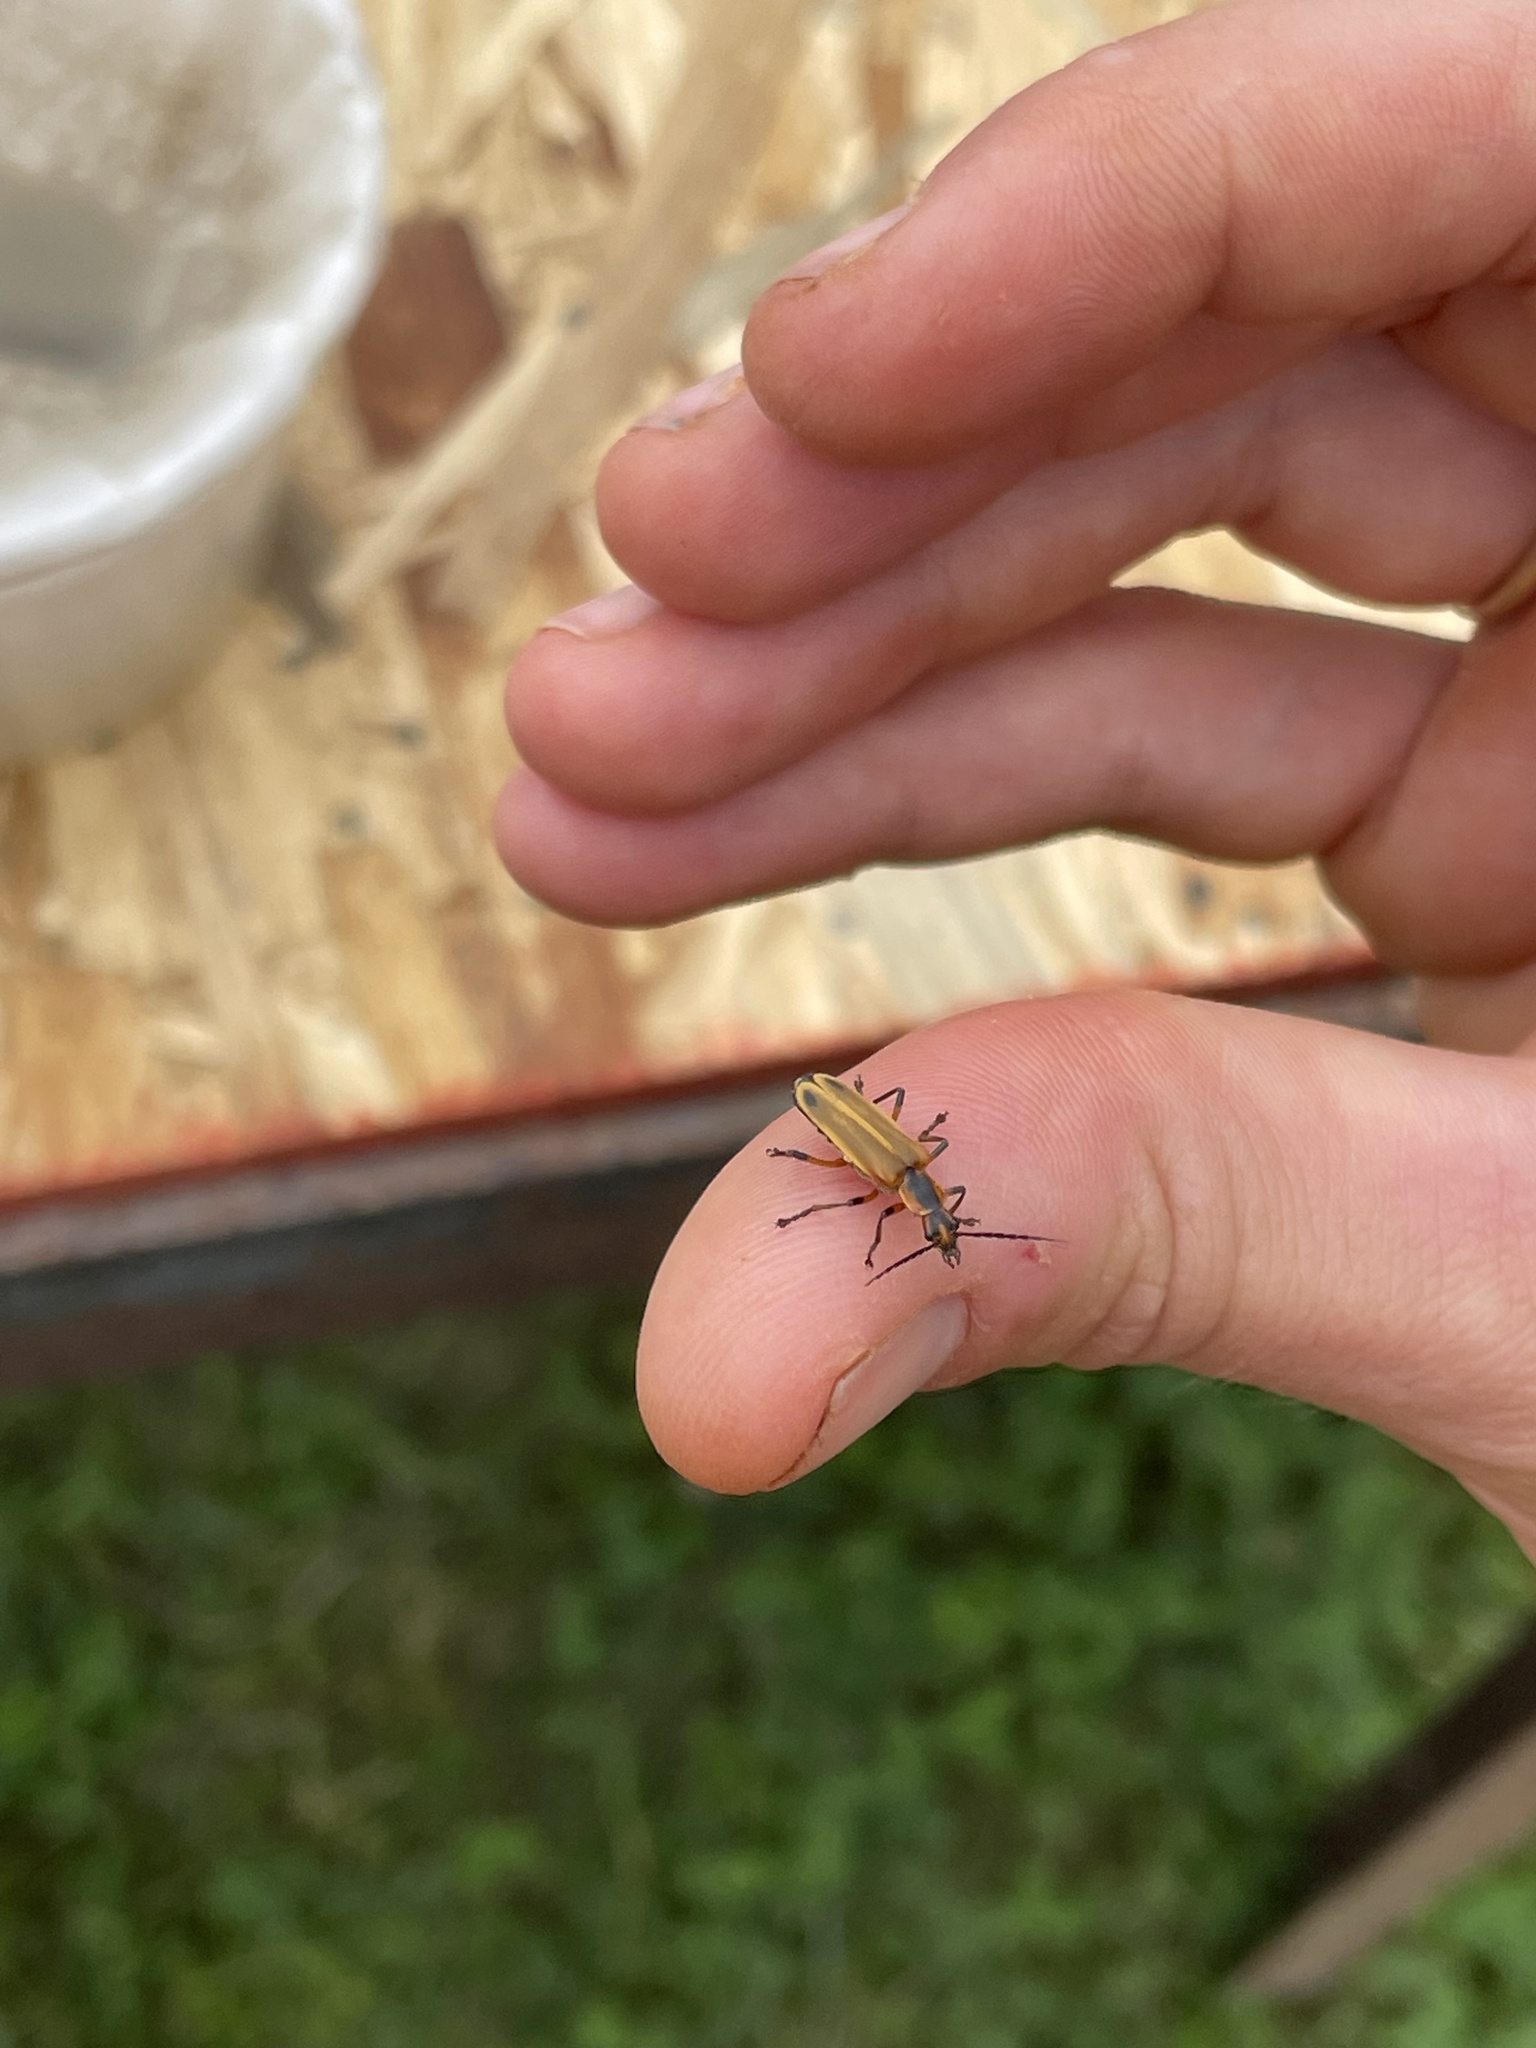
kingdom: Animalia
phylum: Arthropoda
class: Insecta
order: Coleoptera
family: Cantharidae
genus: Chauliognathus
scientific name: Chauliognathus marginatus
